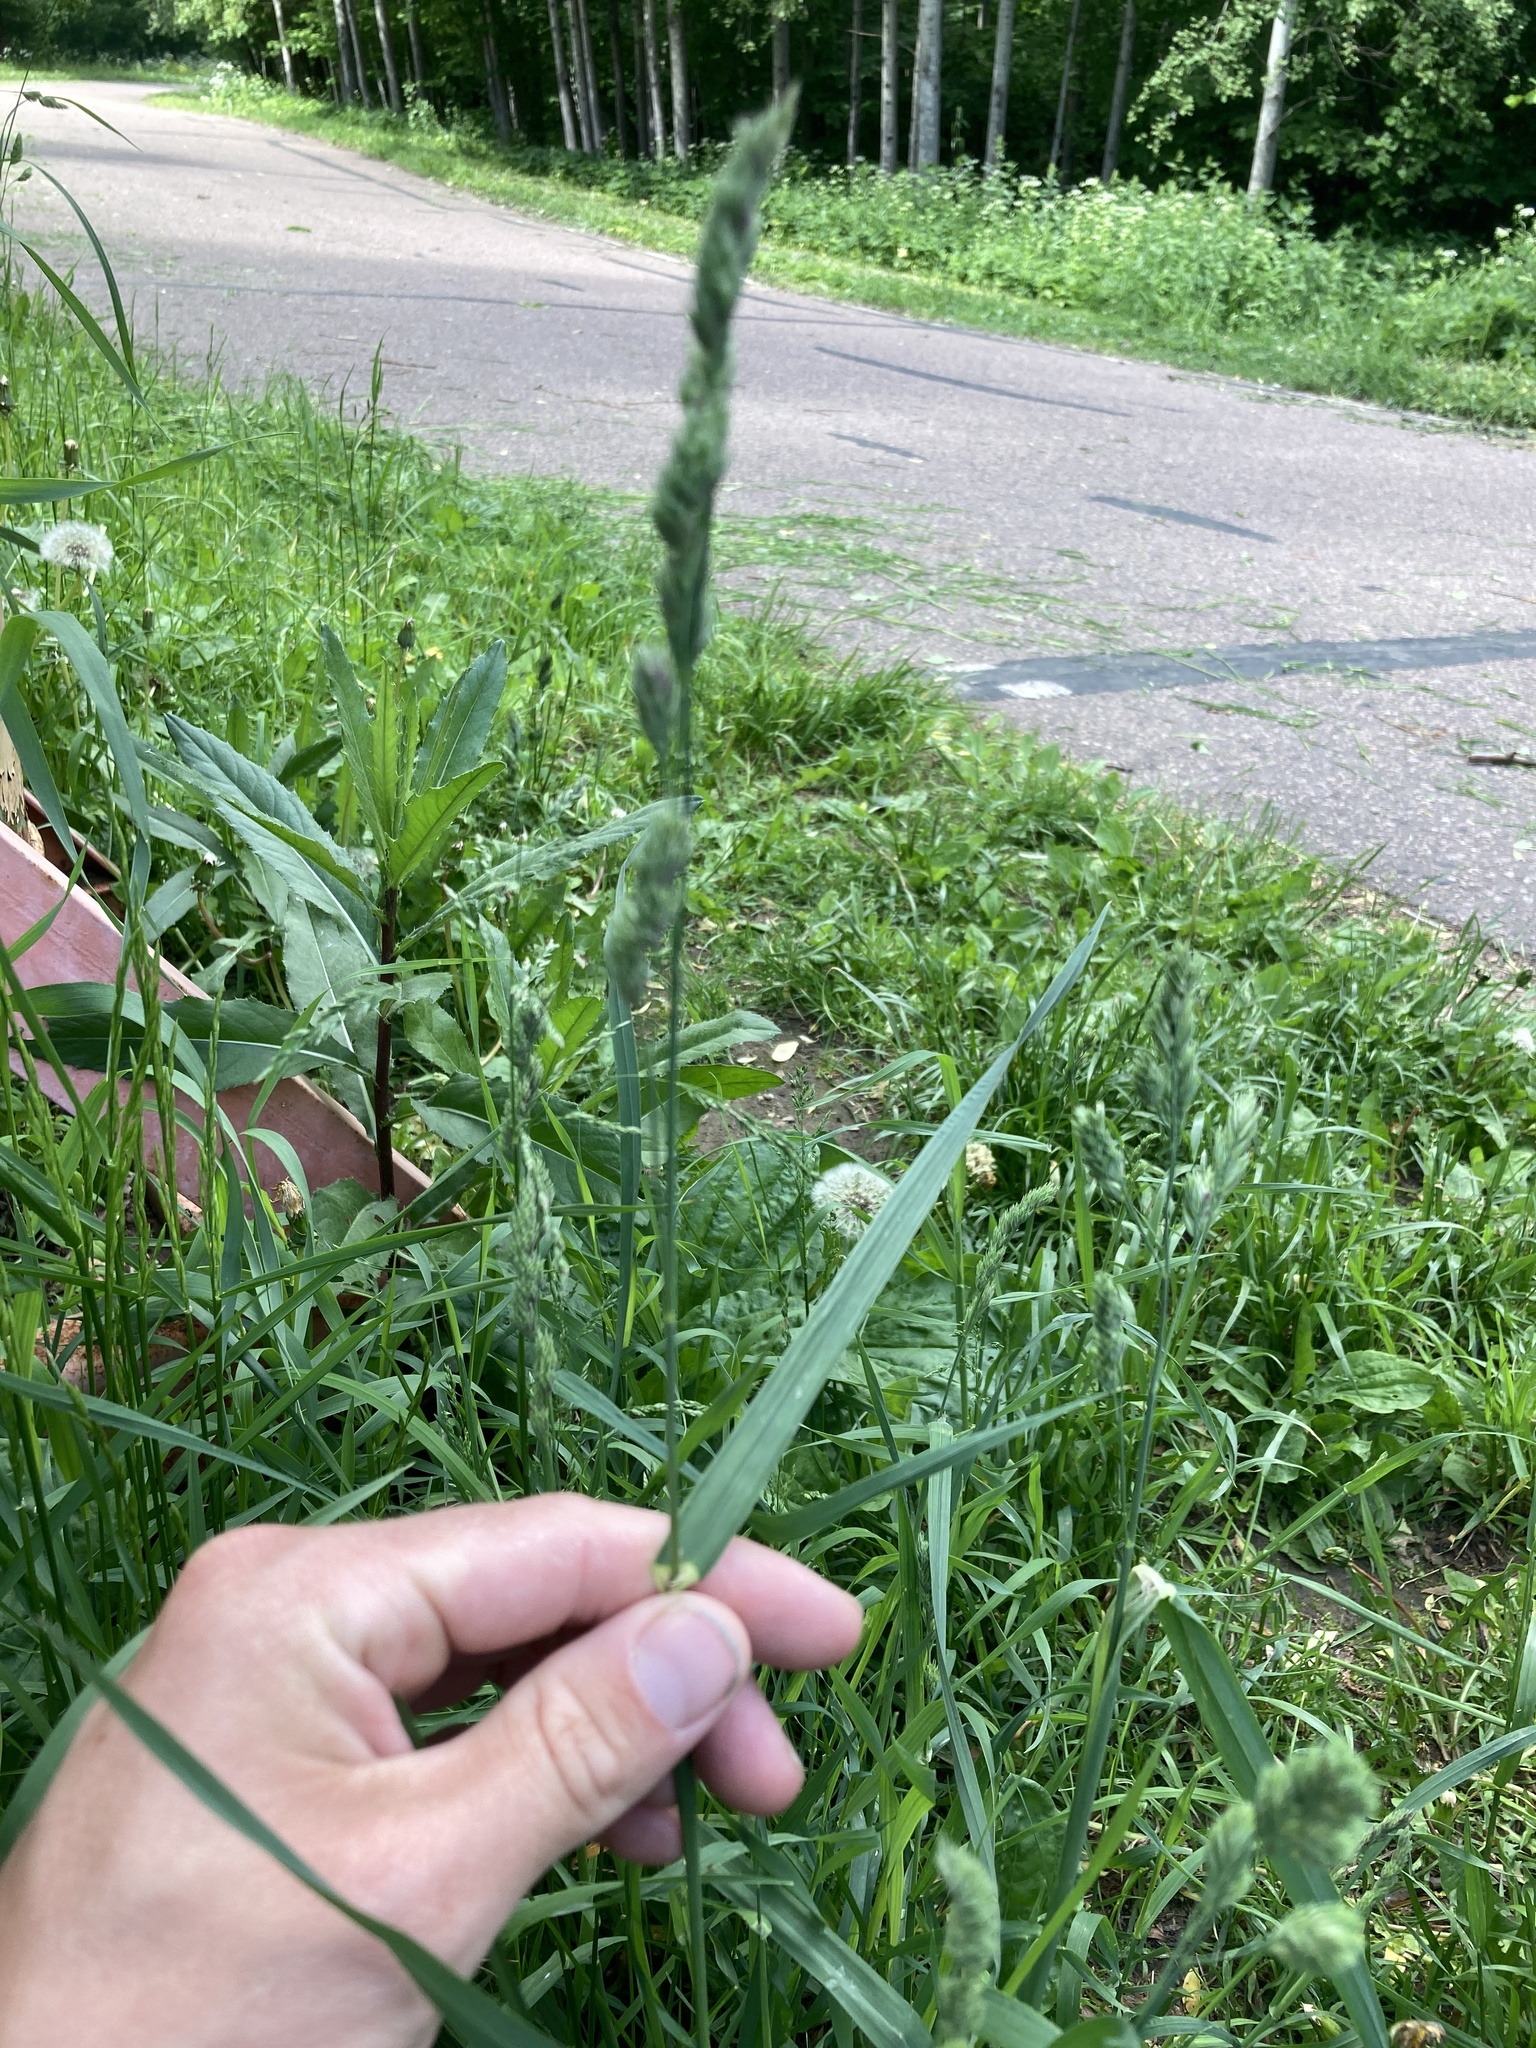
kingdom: Plantae
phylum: Tracheophyta
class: Liliopsida
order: Poales
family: Poaceae
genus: Dactylis
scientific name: Dactylis glomerata
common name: Orchardgrass
